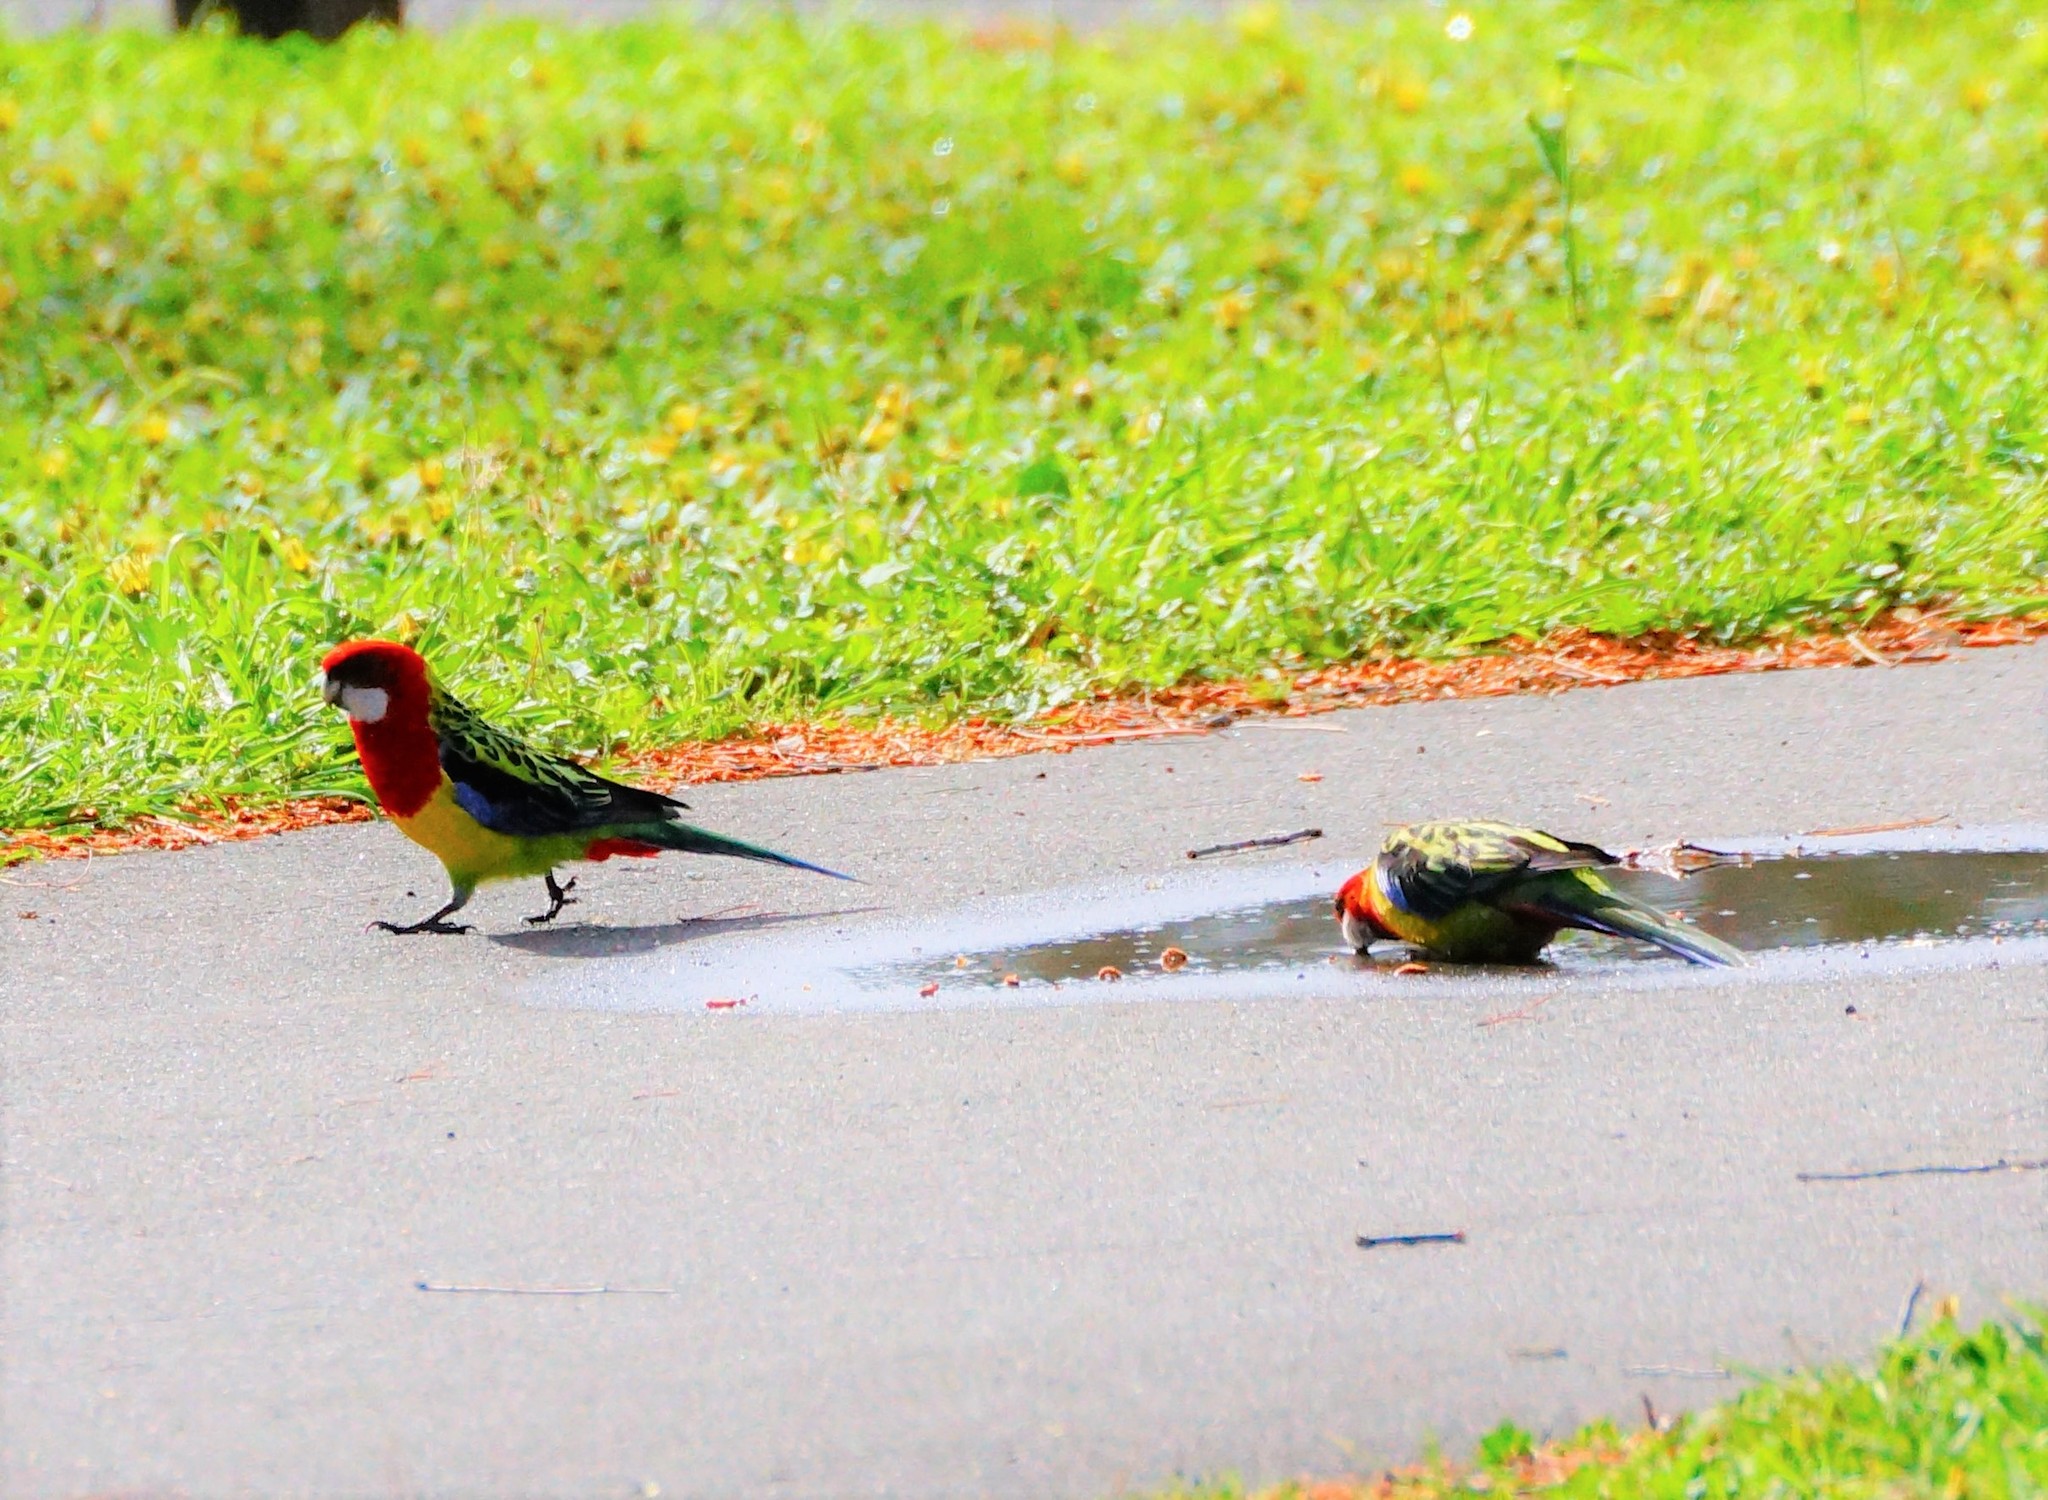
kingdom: Animalia
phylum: Chordata
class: Aves
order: Psittaciformes
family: Psittacidae
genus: Platycercus
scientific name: Platycercus eximius
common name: Eastern rosella
